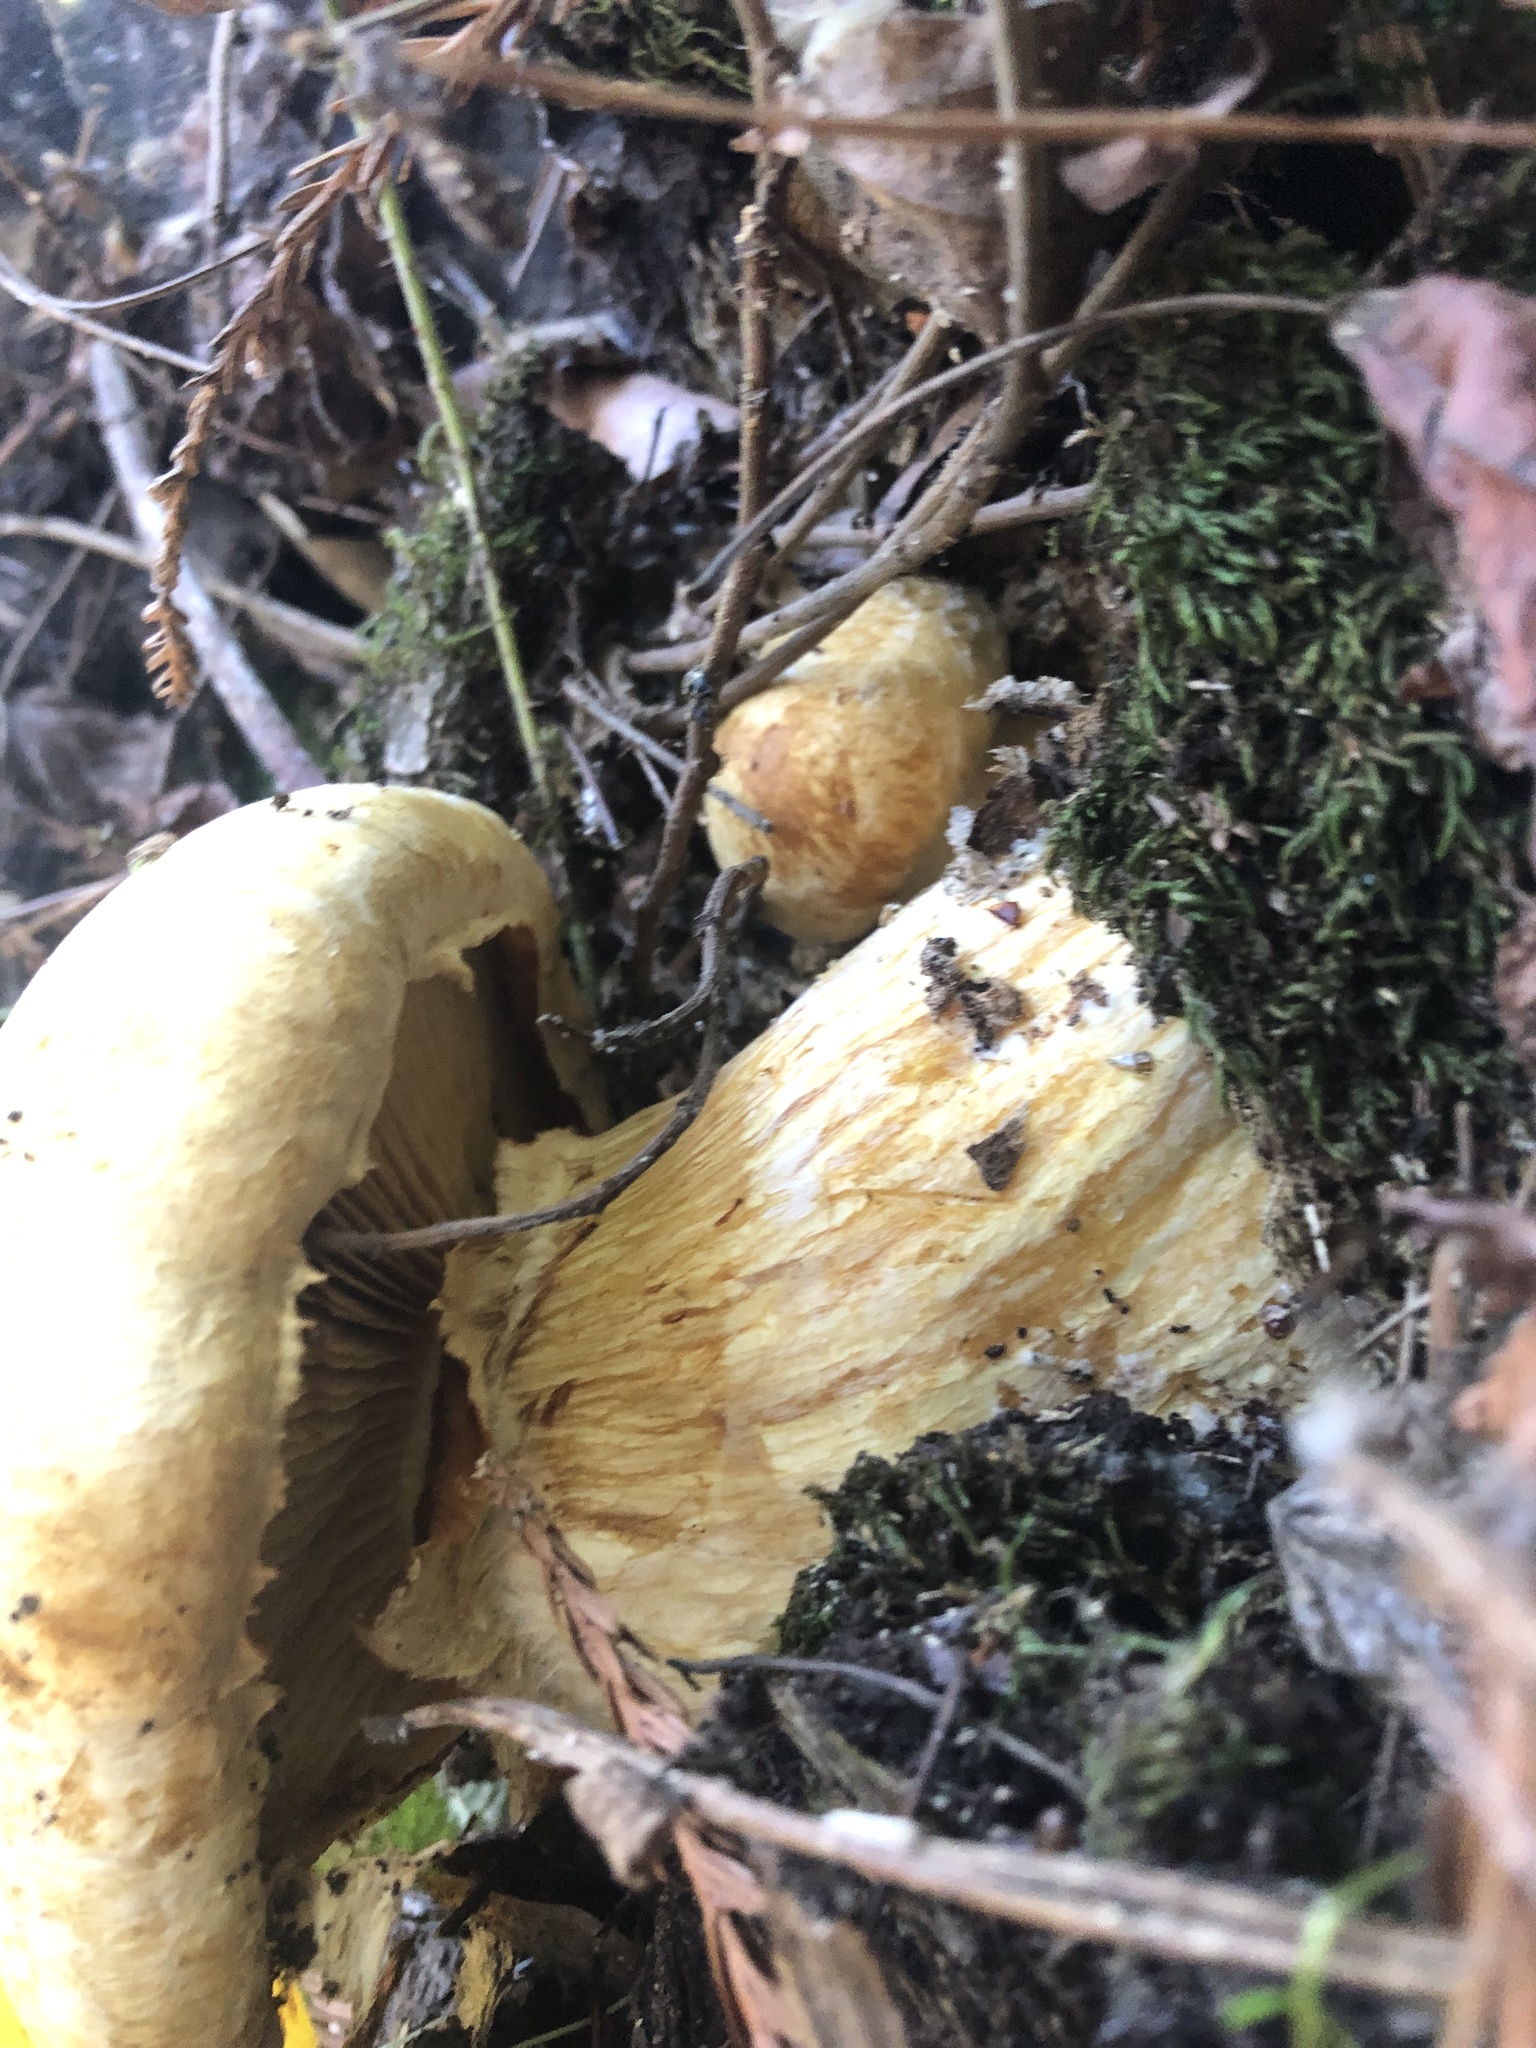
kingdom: Fungi
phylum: Basidiomycota
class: Agaricomycetes
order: Agaricales
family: Hymenogastraceae
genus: Gymnopilus
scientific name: Gymnopilus ventricosus
